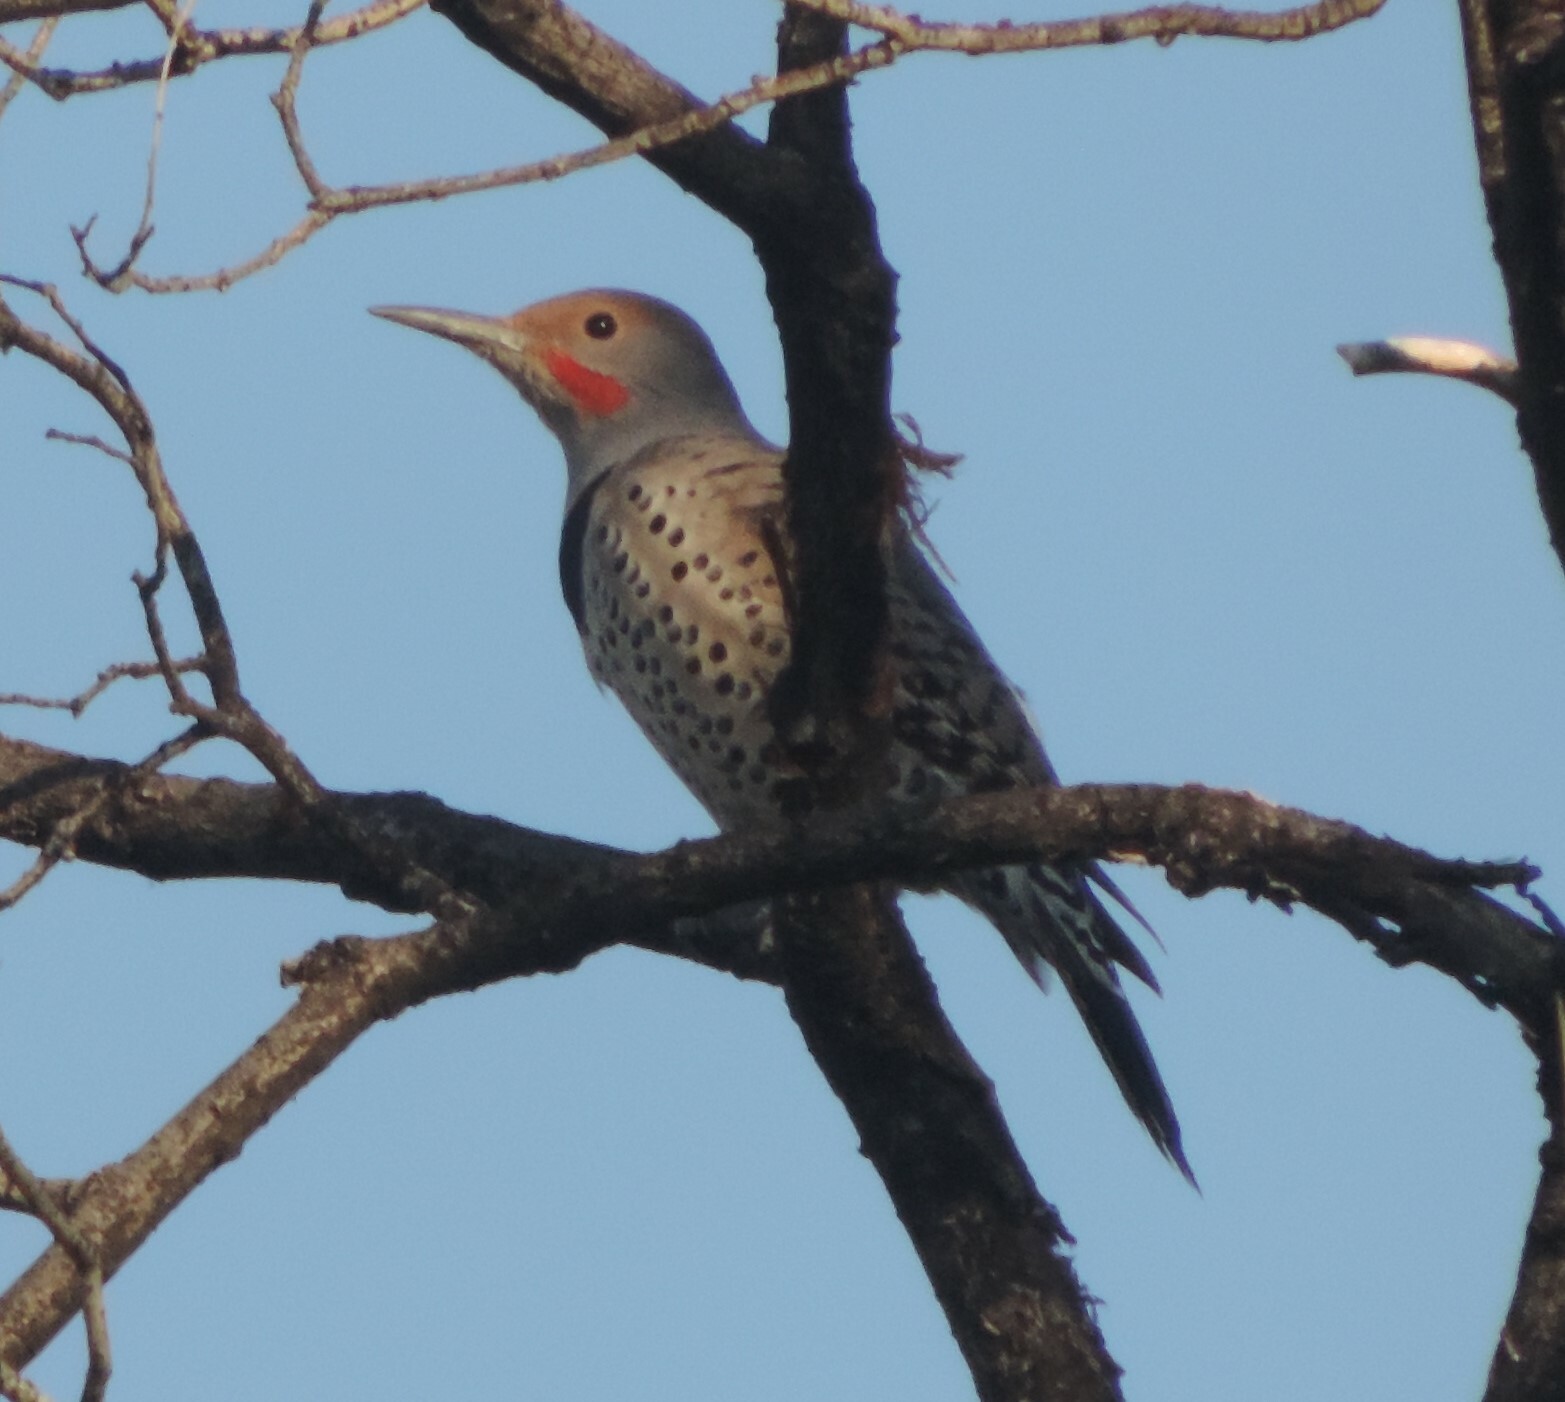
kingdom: Animalia
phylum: Chordata
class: Aves
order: Piciformes
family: Picidae
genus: Colaptes
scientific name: Colaptes auratus
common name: Northern flicker
